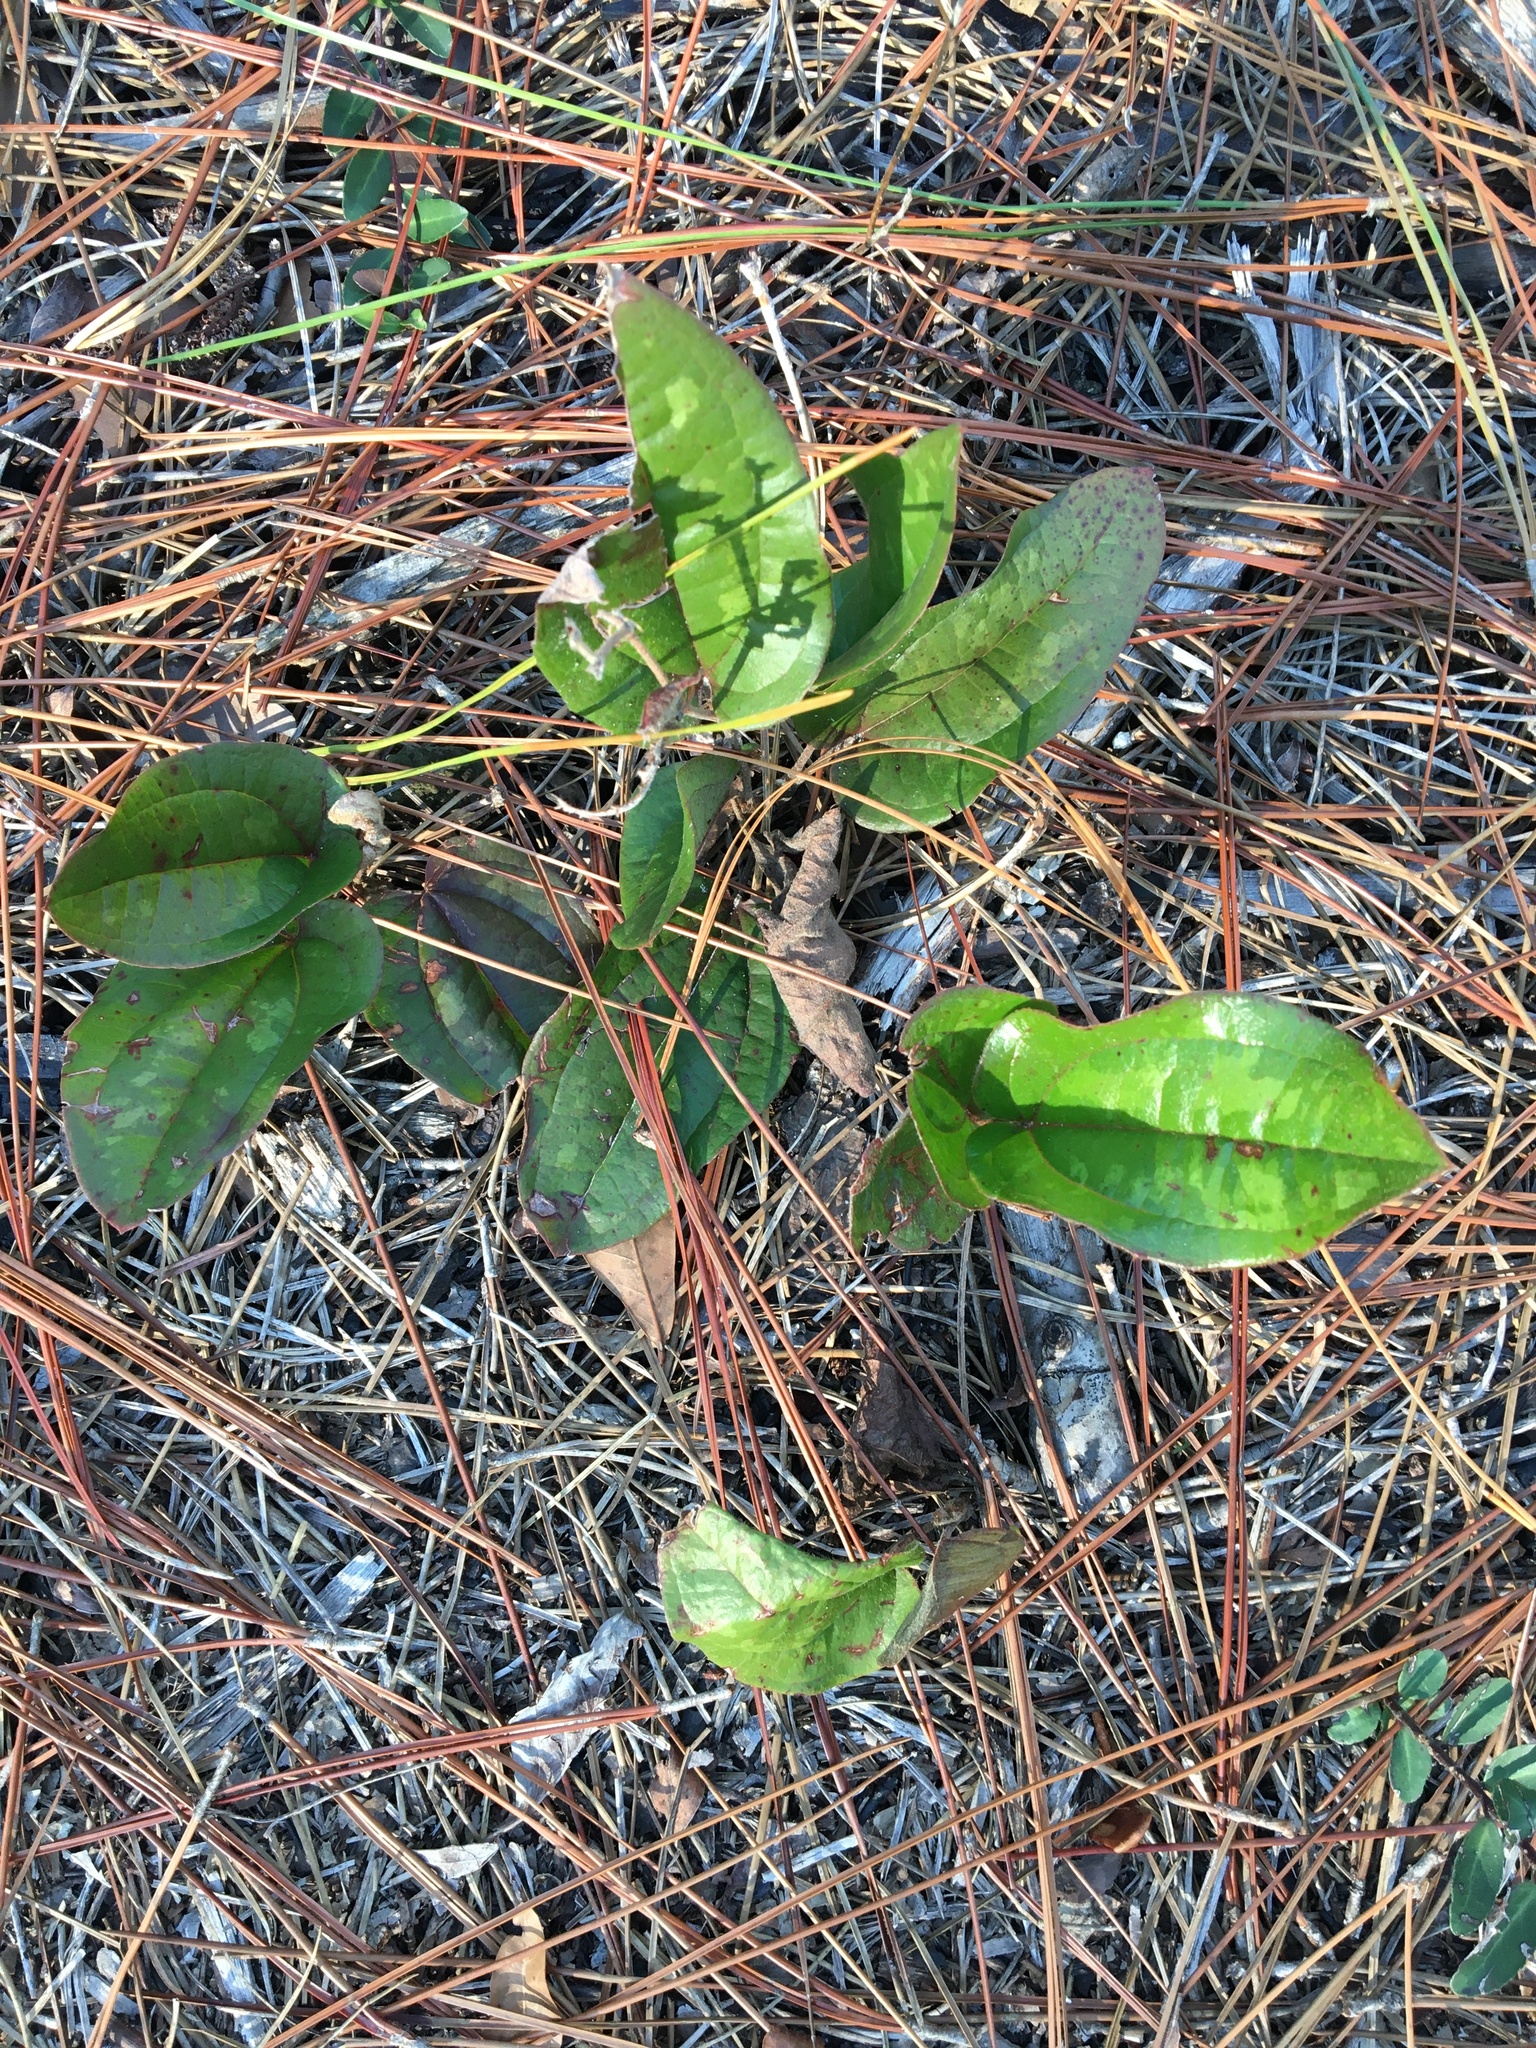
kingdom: Plantae
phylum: Tracheophyta
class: Liliopsida
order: Liliales
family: Smilacaceae
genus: Smilax
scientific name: Smilax pumila
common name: Sarsaparilla-vine
